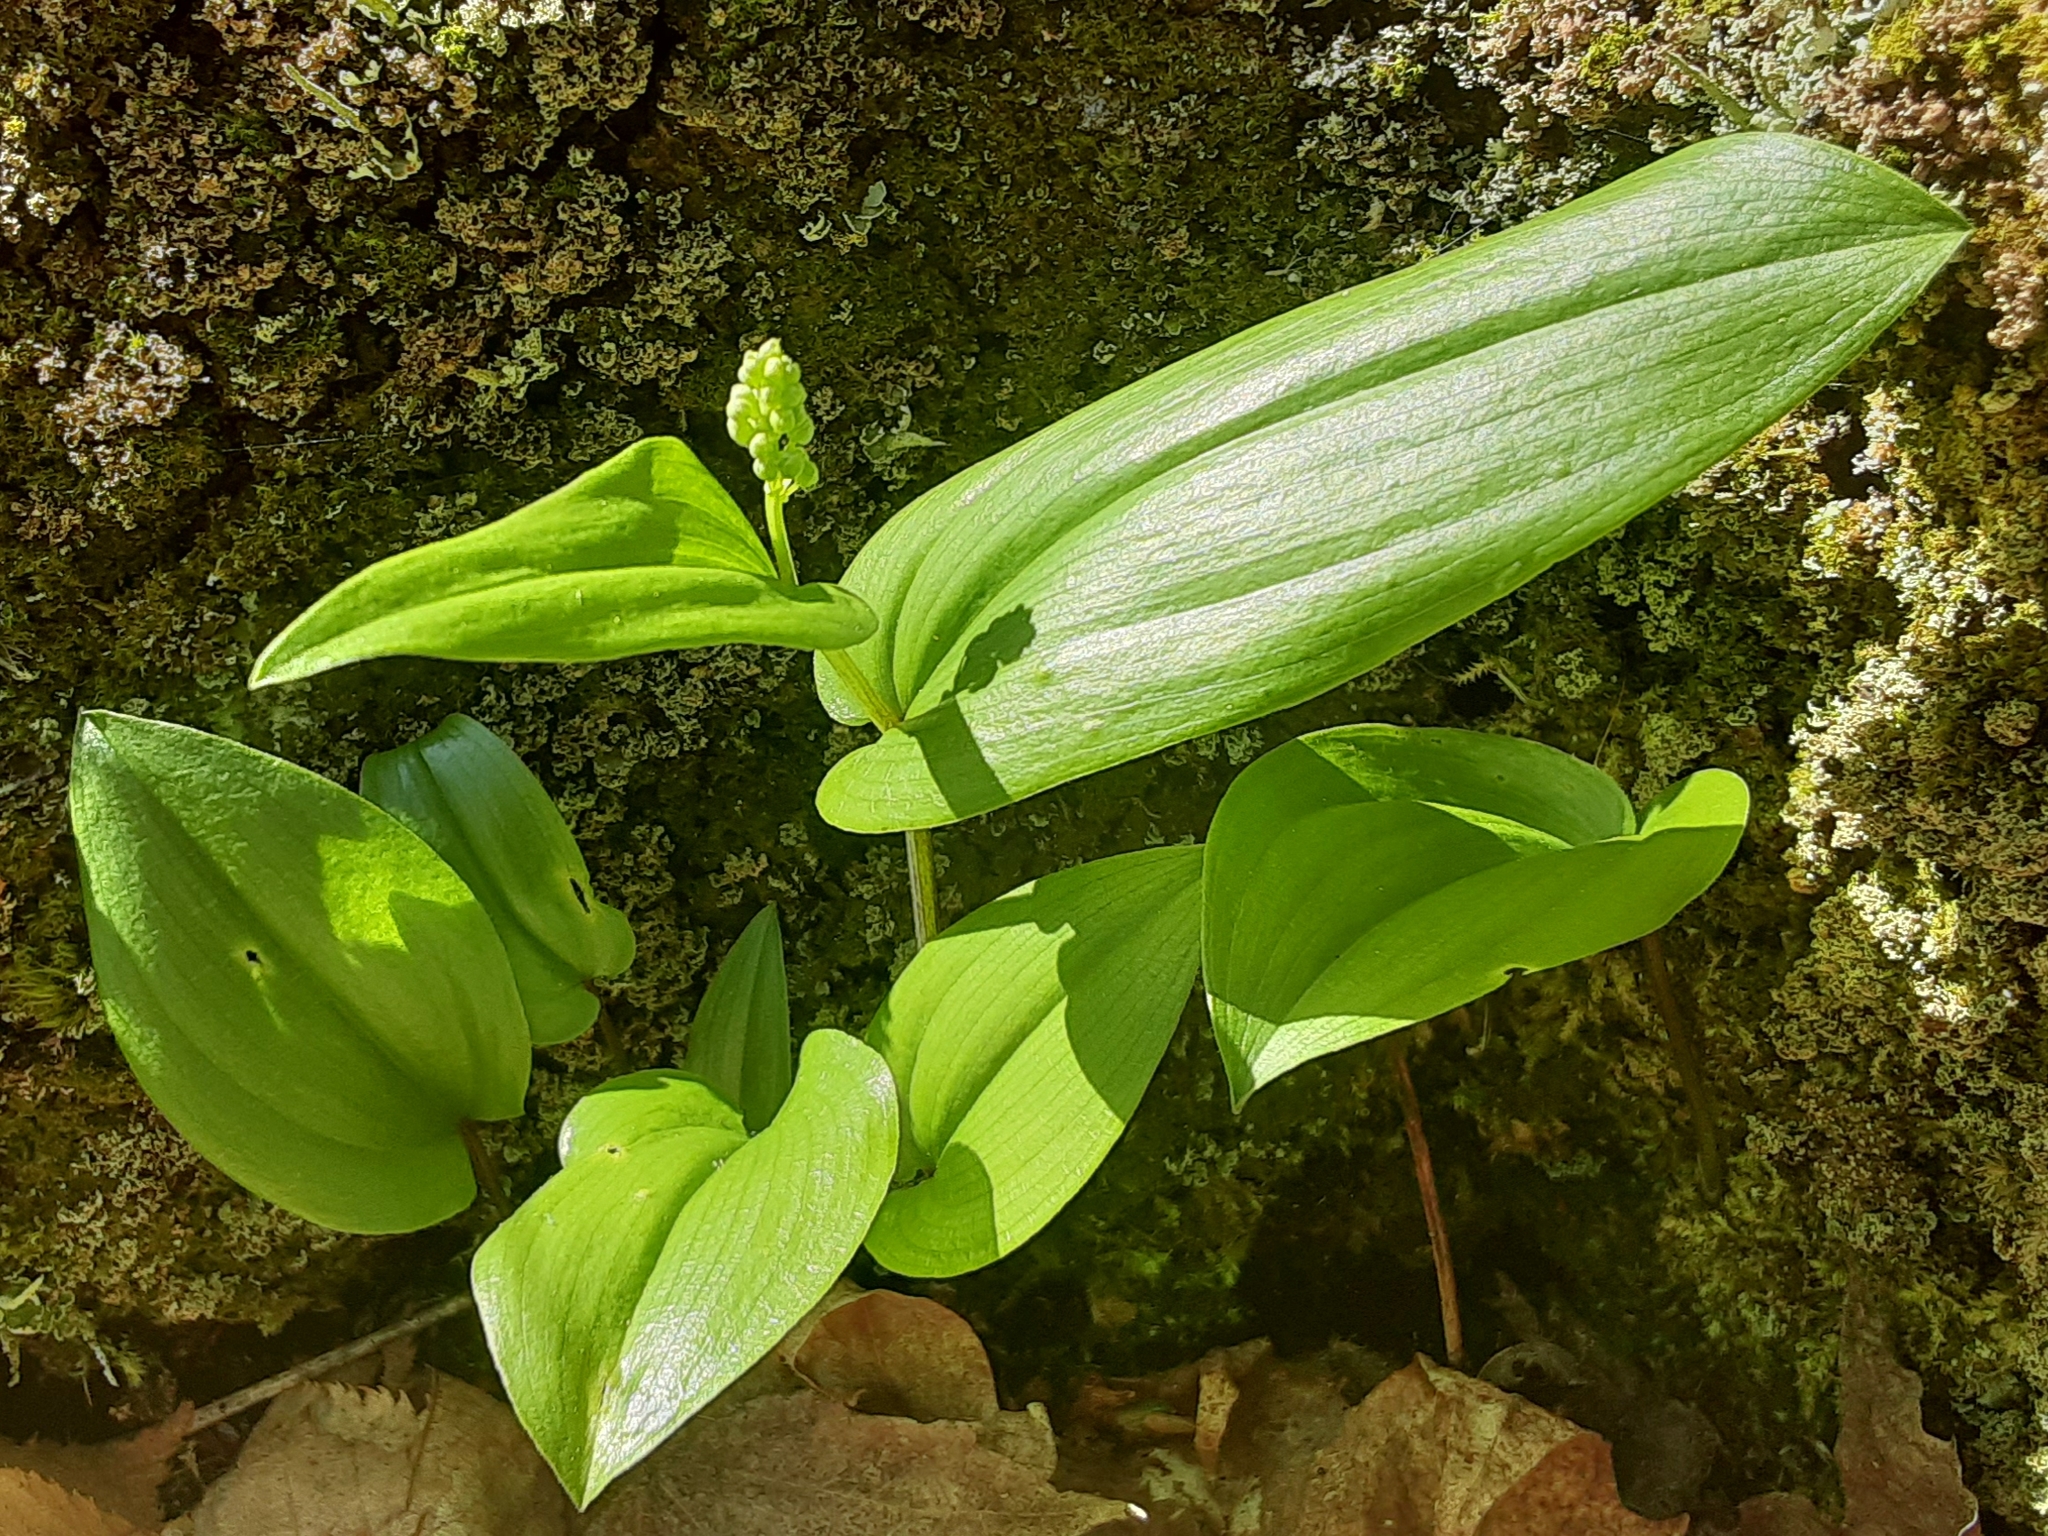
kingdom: Plantae
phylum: Tracheophyta
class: Liliopsida
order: Asparagales
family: Asparagaceae
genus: Maianthemum
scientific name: Maianthemum canadense
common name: False lily-of-the-valley
